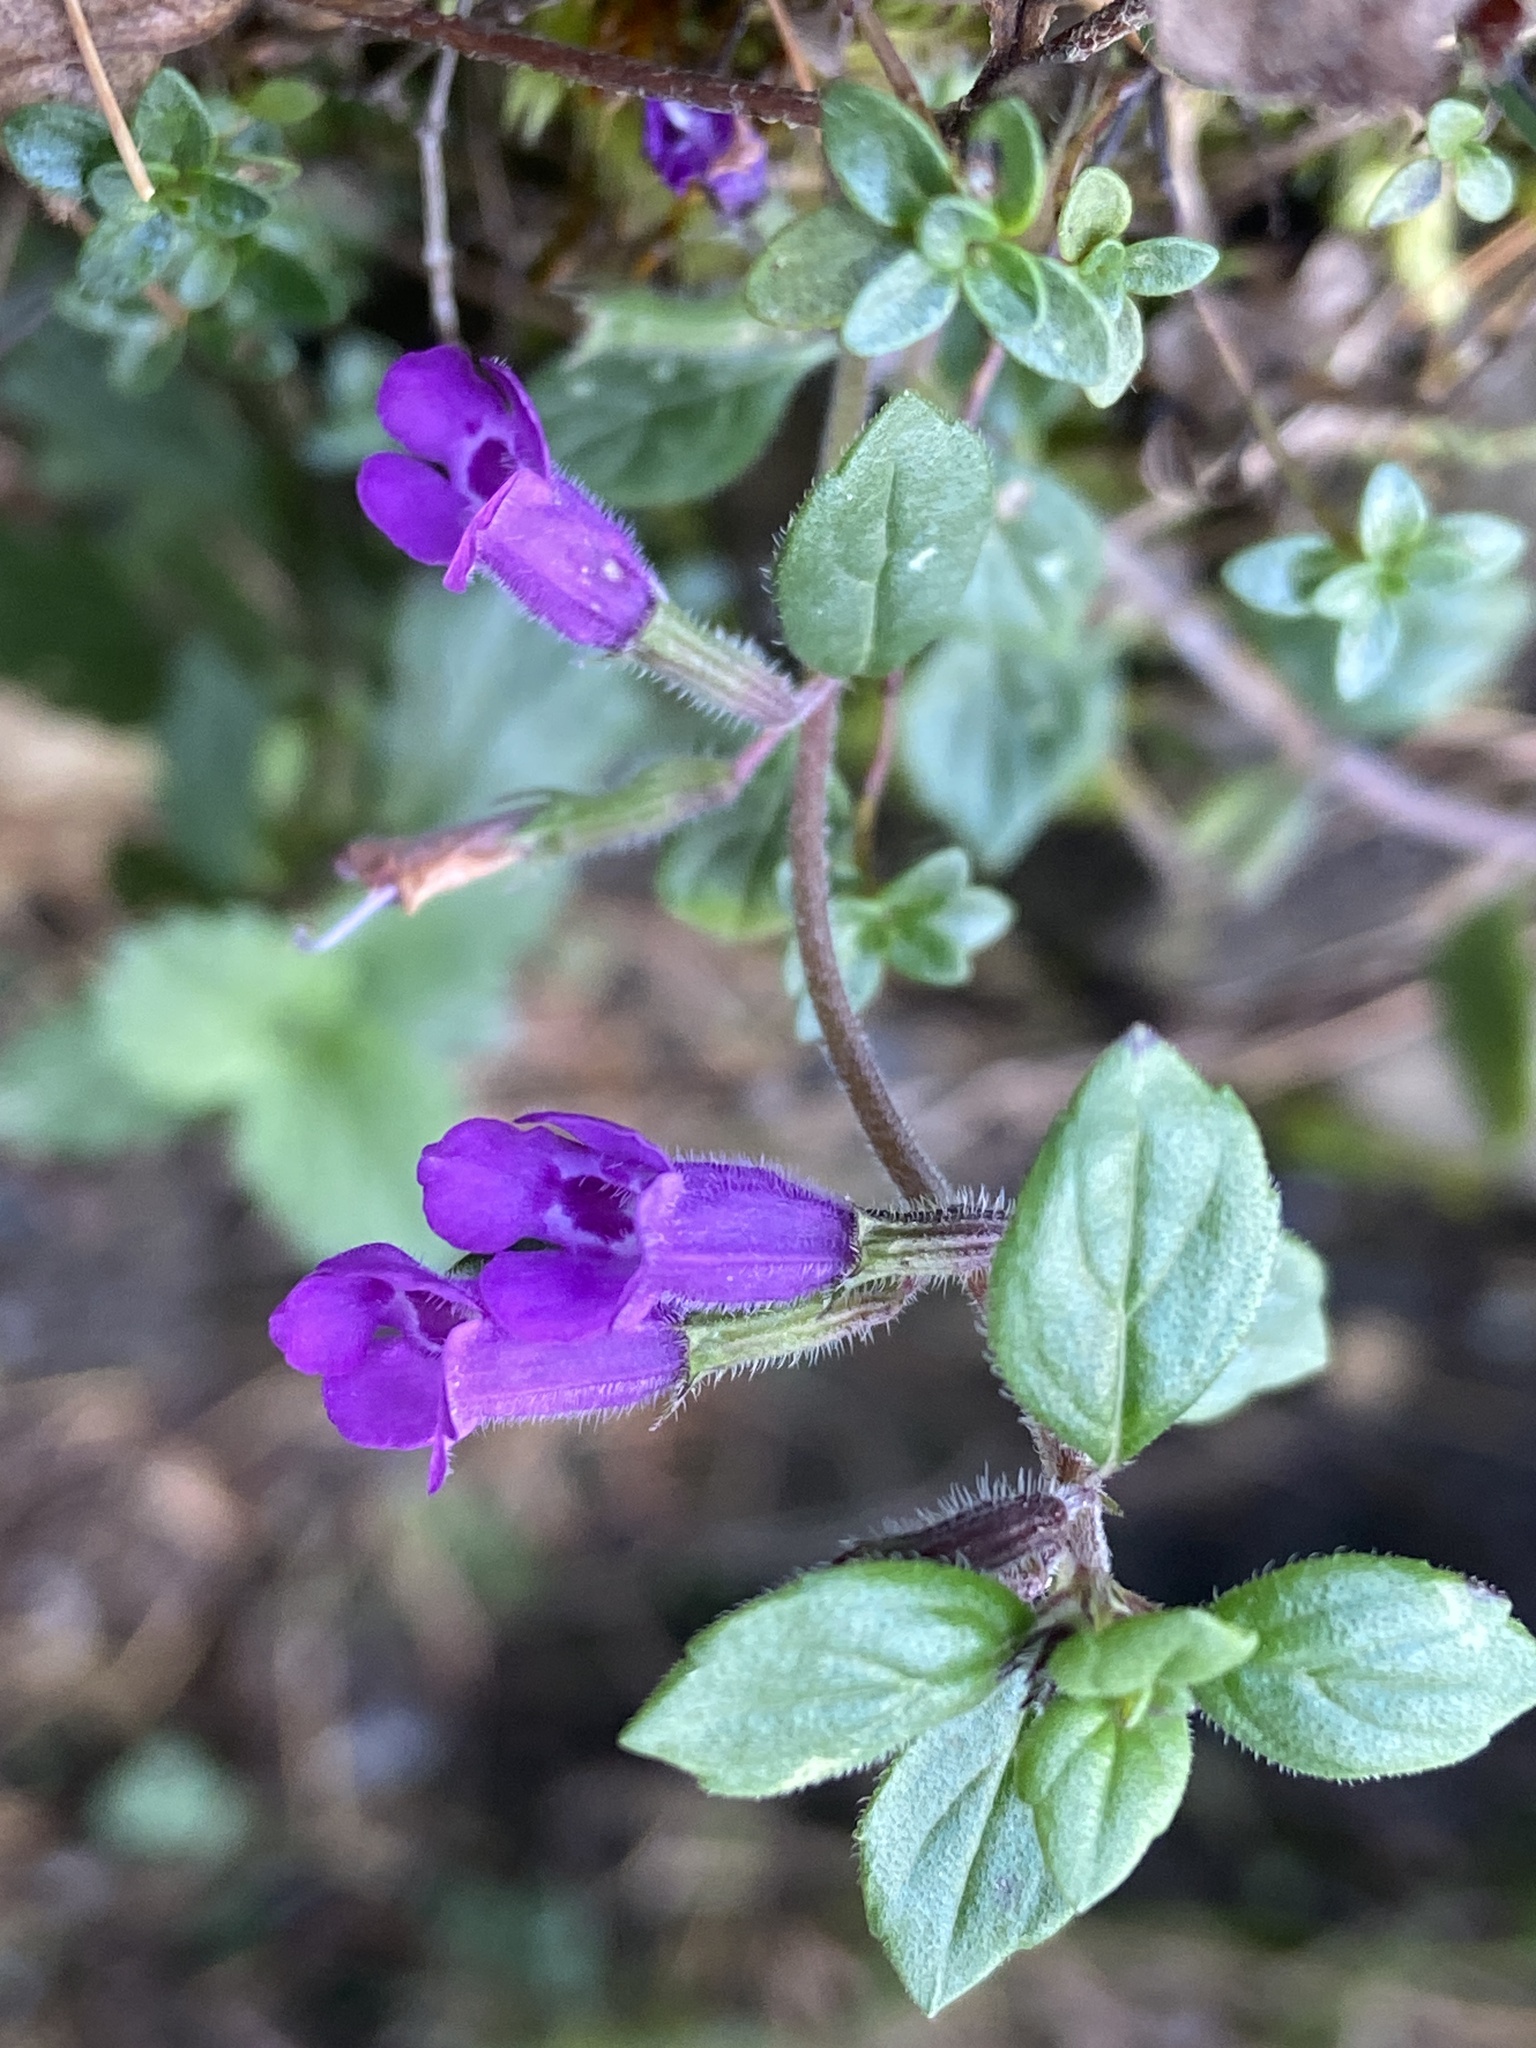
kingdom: Plantae
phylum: Tracheophyta
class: Magnoliopsida
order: Lamiales
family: Lamiaceae
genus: Clinopodium
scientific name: Clinopodium alpinum
